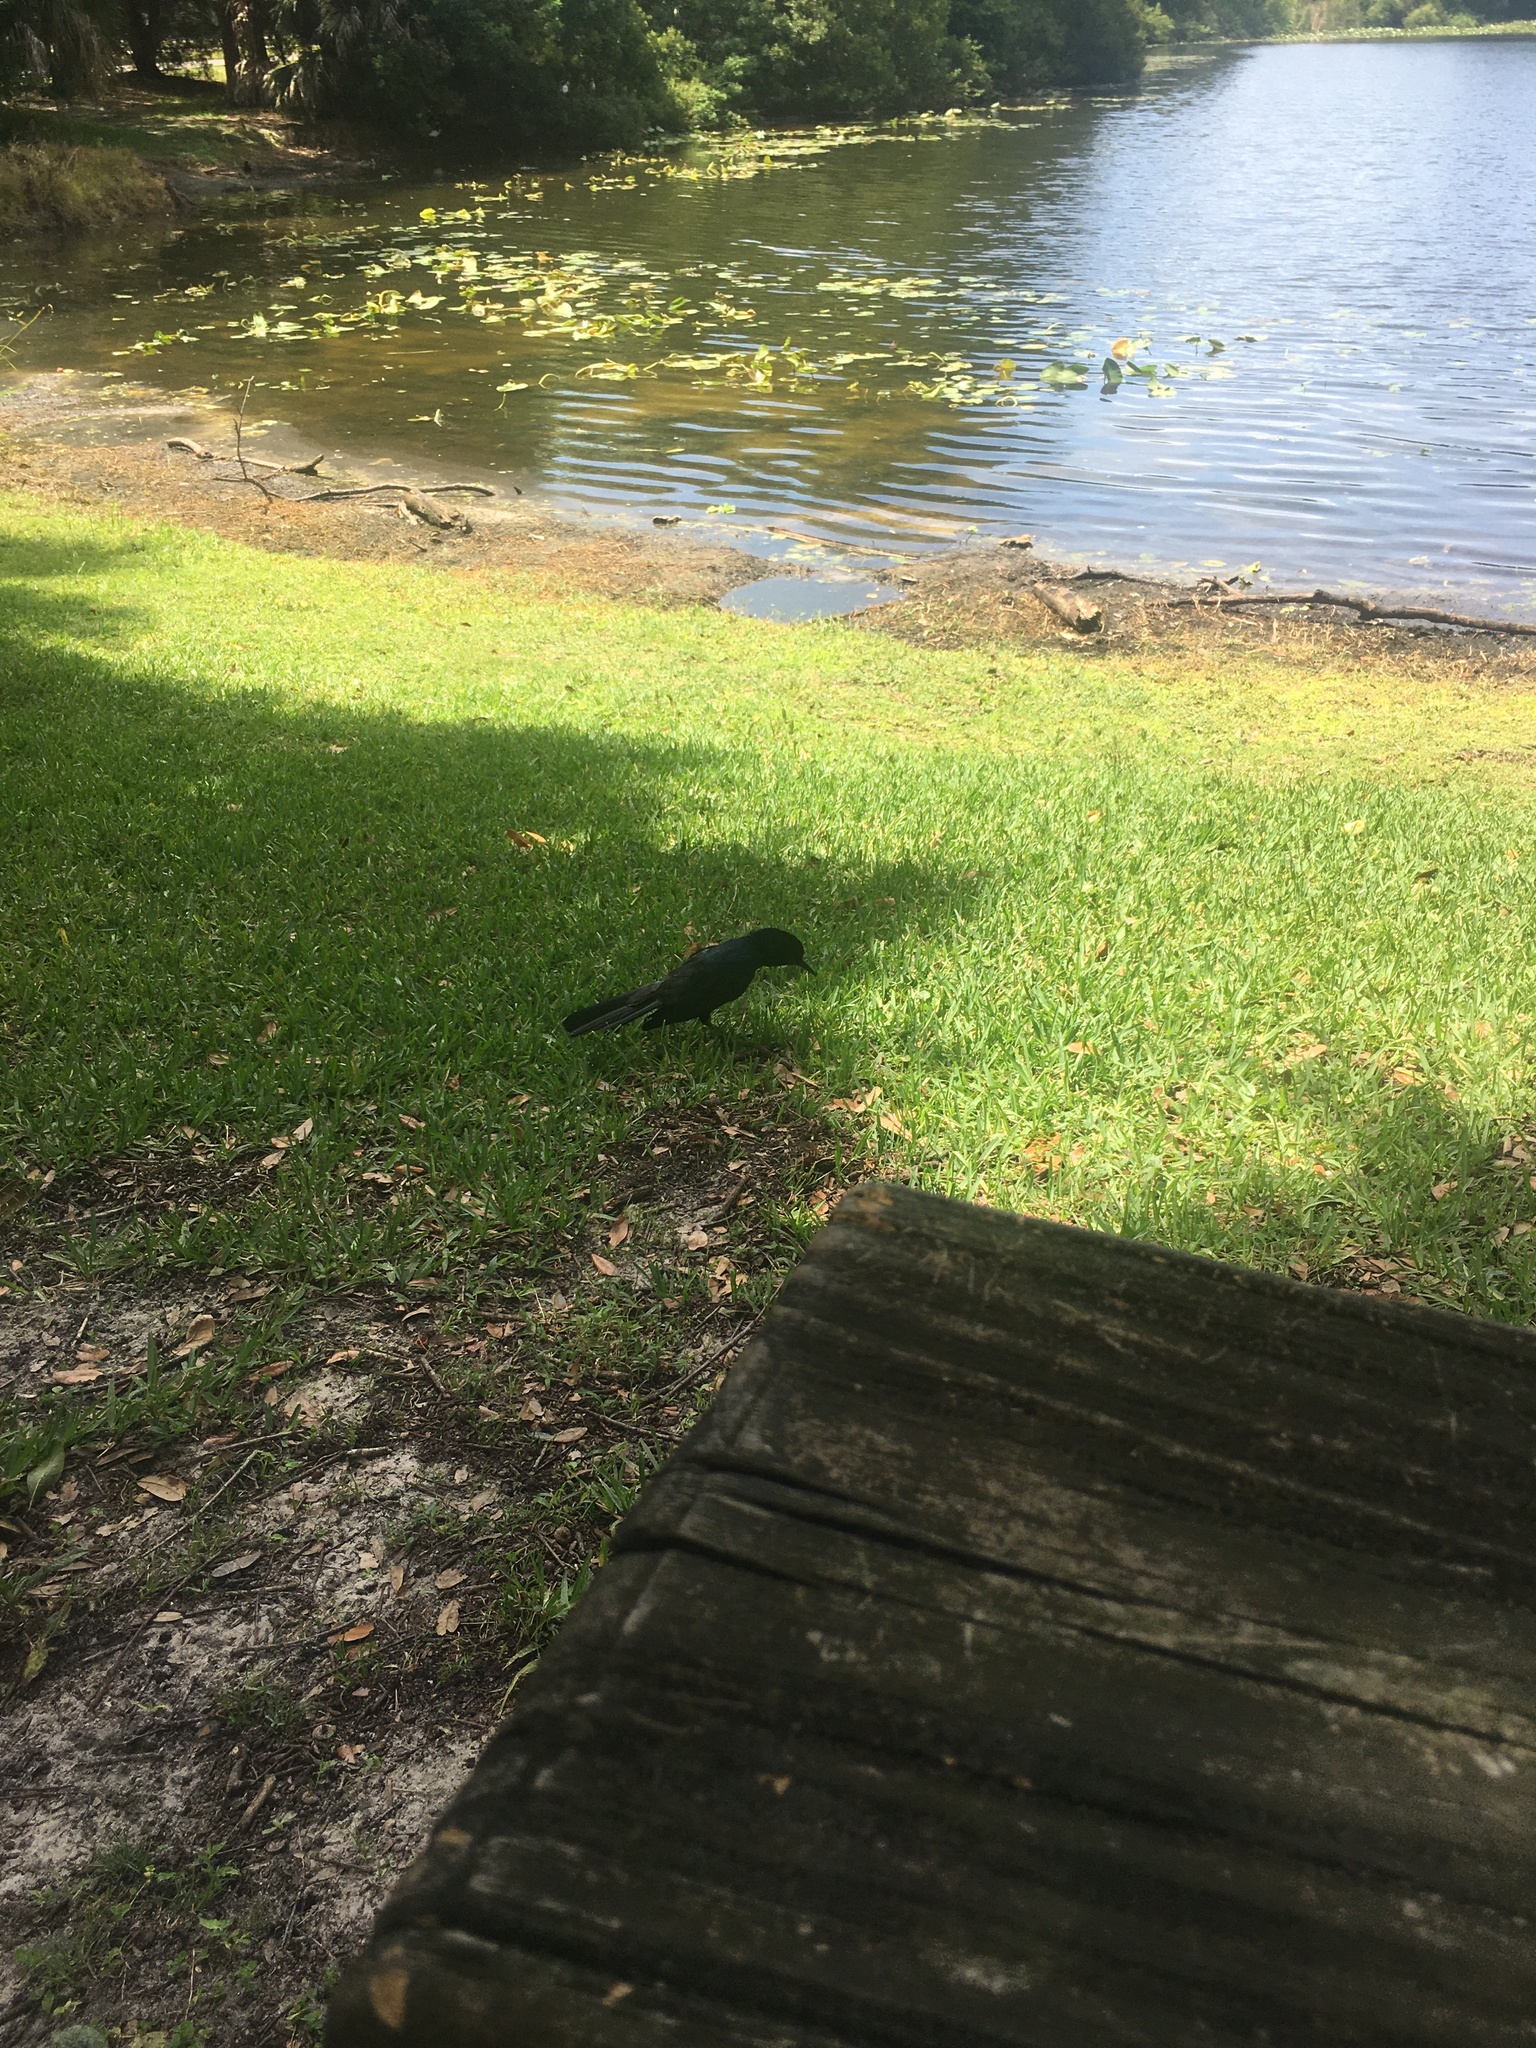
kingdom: Animalia
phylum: Chordata
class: Aves
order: Passeriformes
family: Icteridae
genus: Quiscalus
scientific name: Quiscalus major
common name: Boat-tailed grackle
